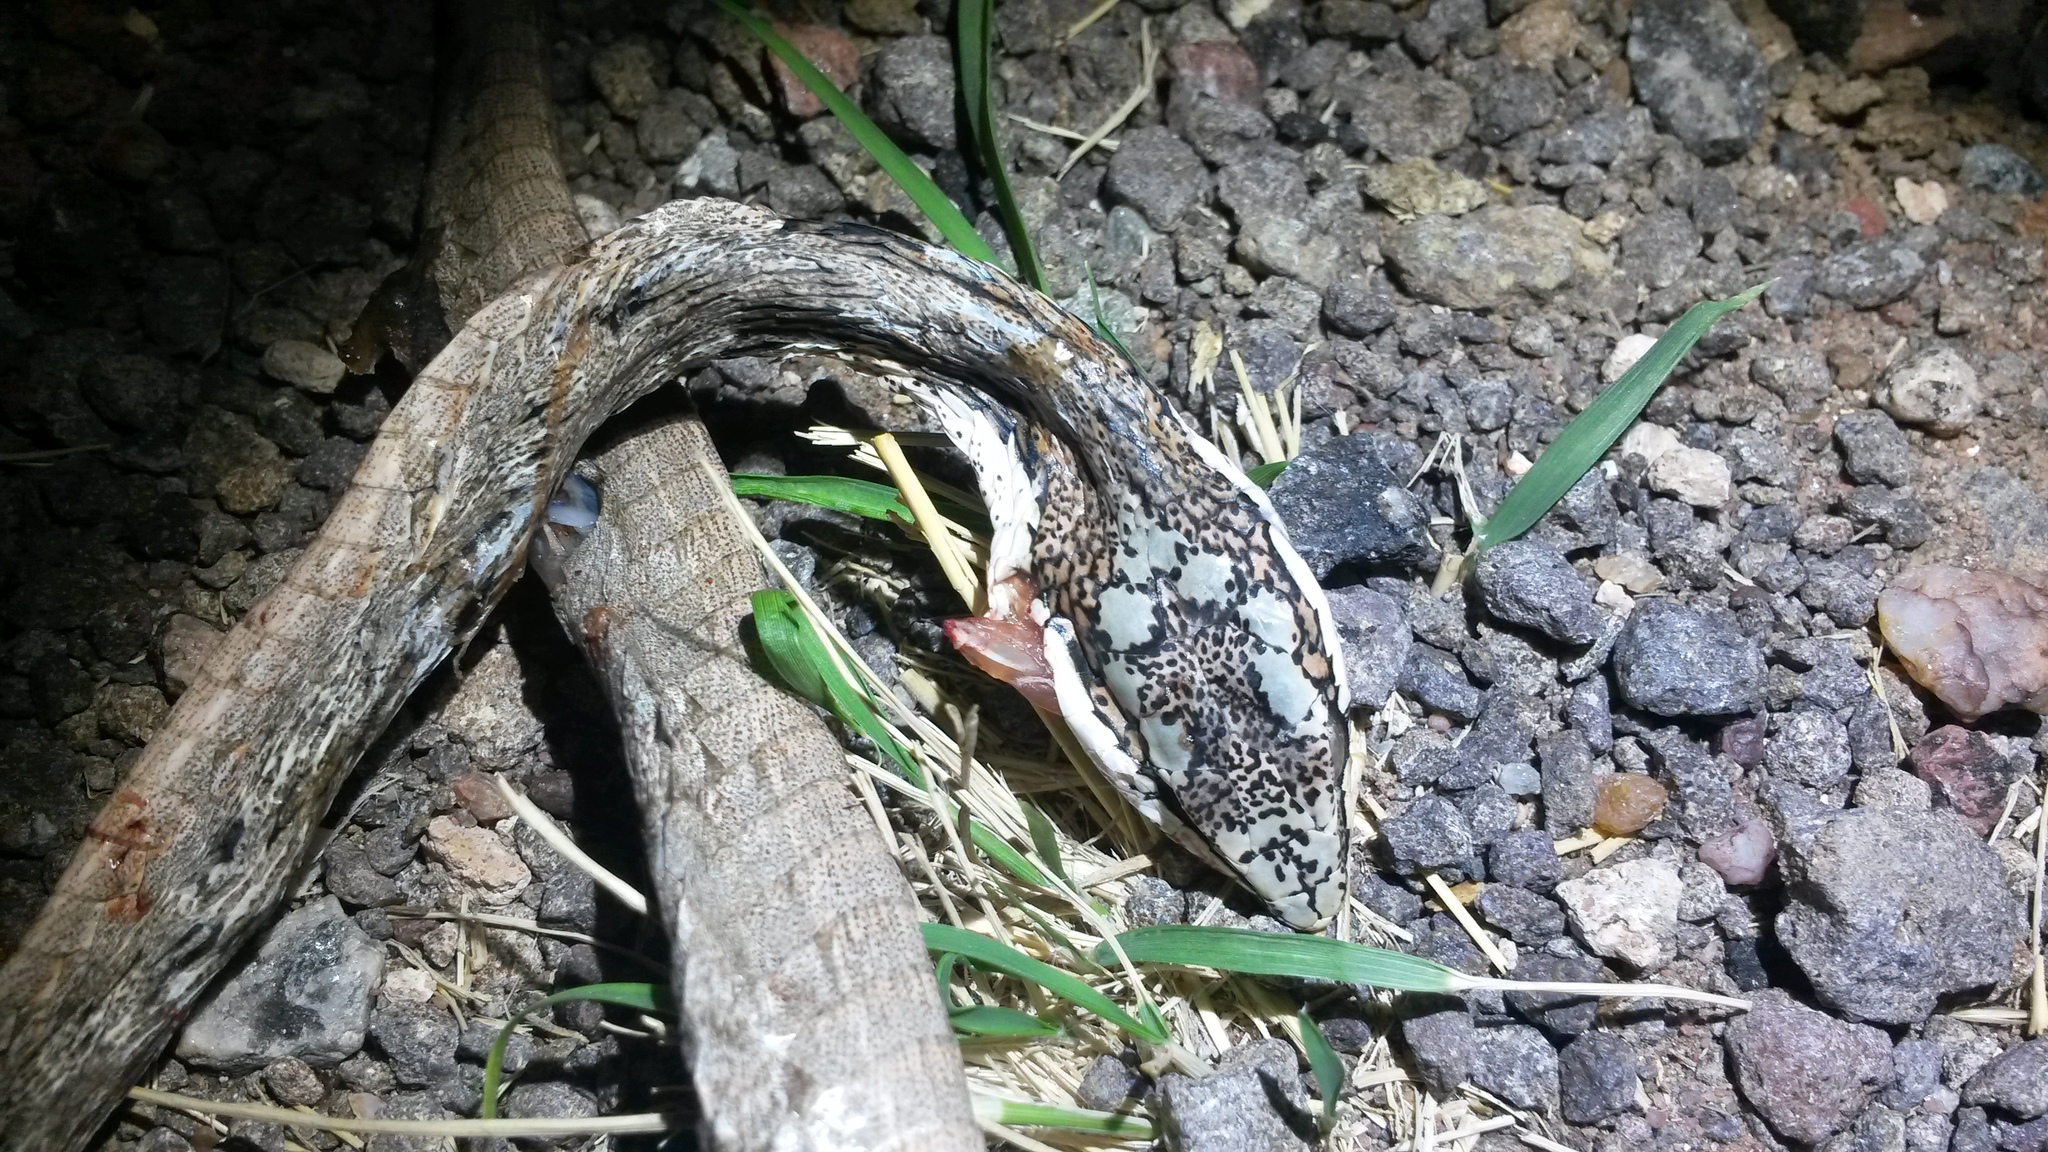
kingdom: Animalia
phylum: Chordata
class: Squamata
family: Colubridae
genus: Thelotornis
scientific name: Thelotornis capensis
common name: Savanna vine snake
